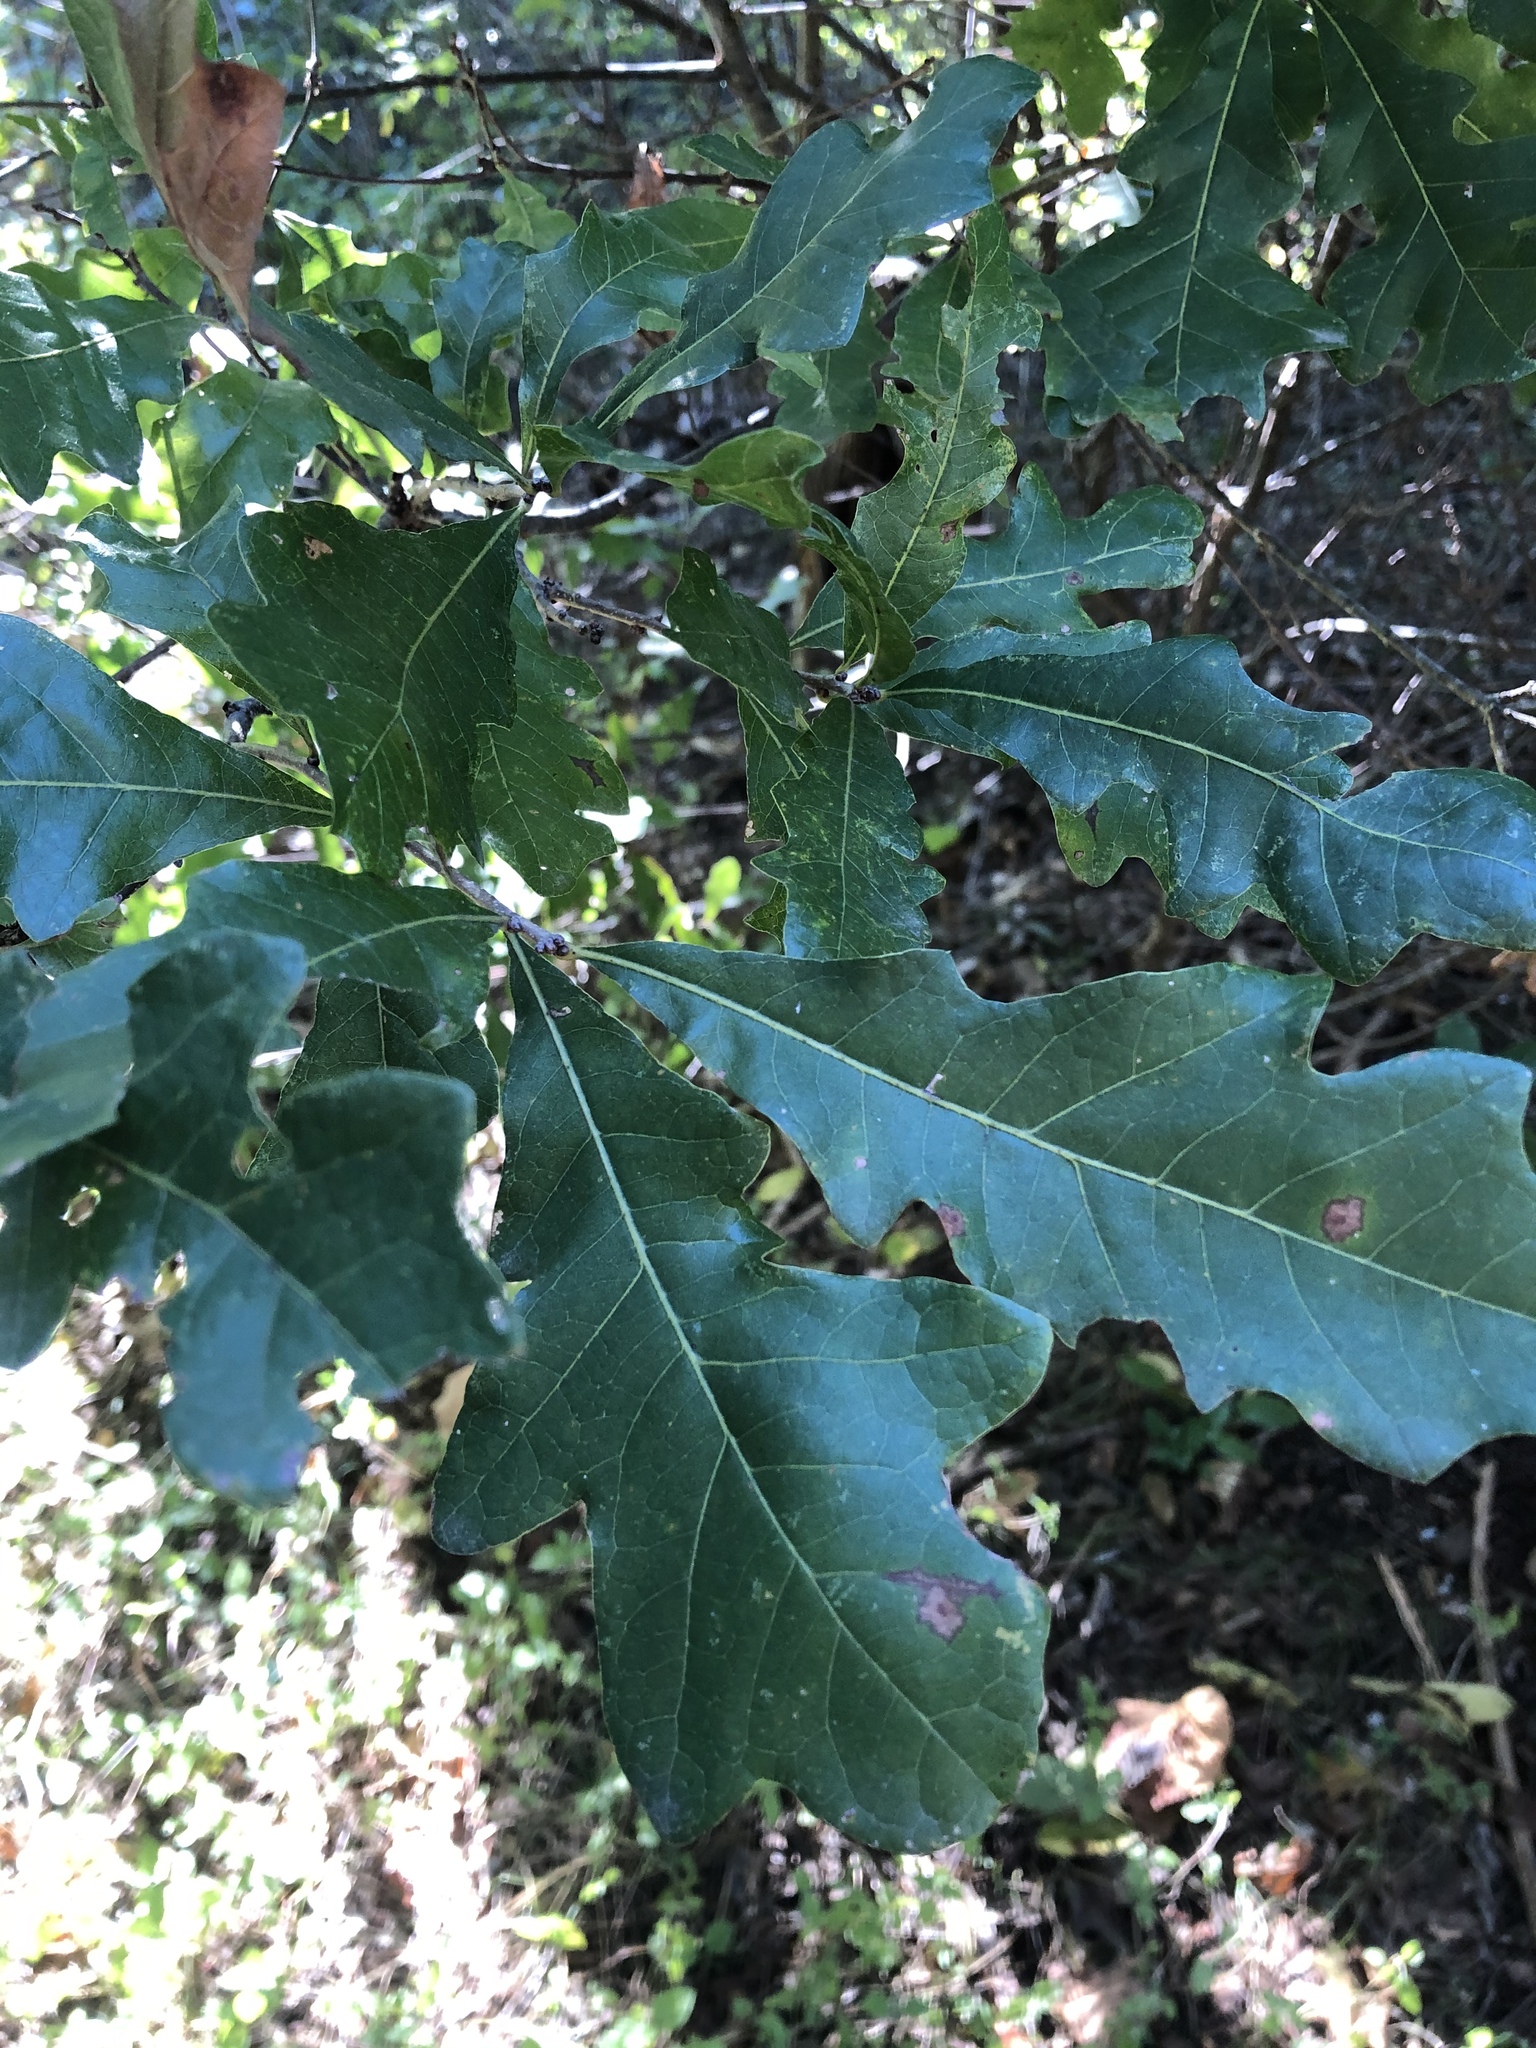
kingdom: Plantae
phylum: Tracheophyta
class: Magnoliopsida
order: Fagales
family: Fagaceae
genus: Quercus
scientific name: Quercus sinuata
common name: Durand oak
